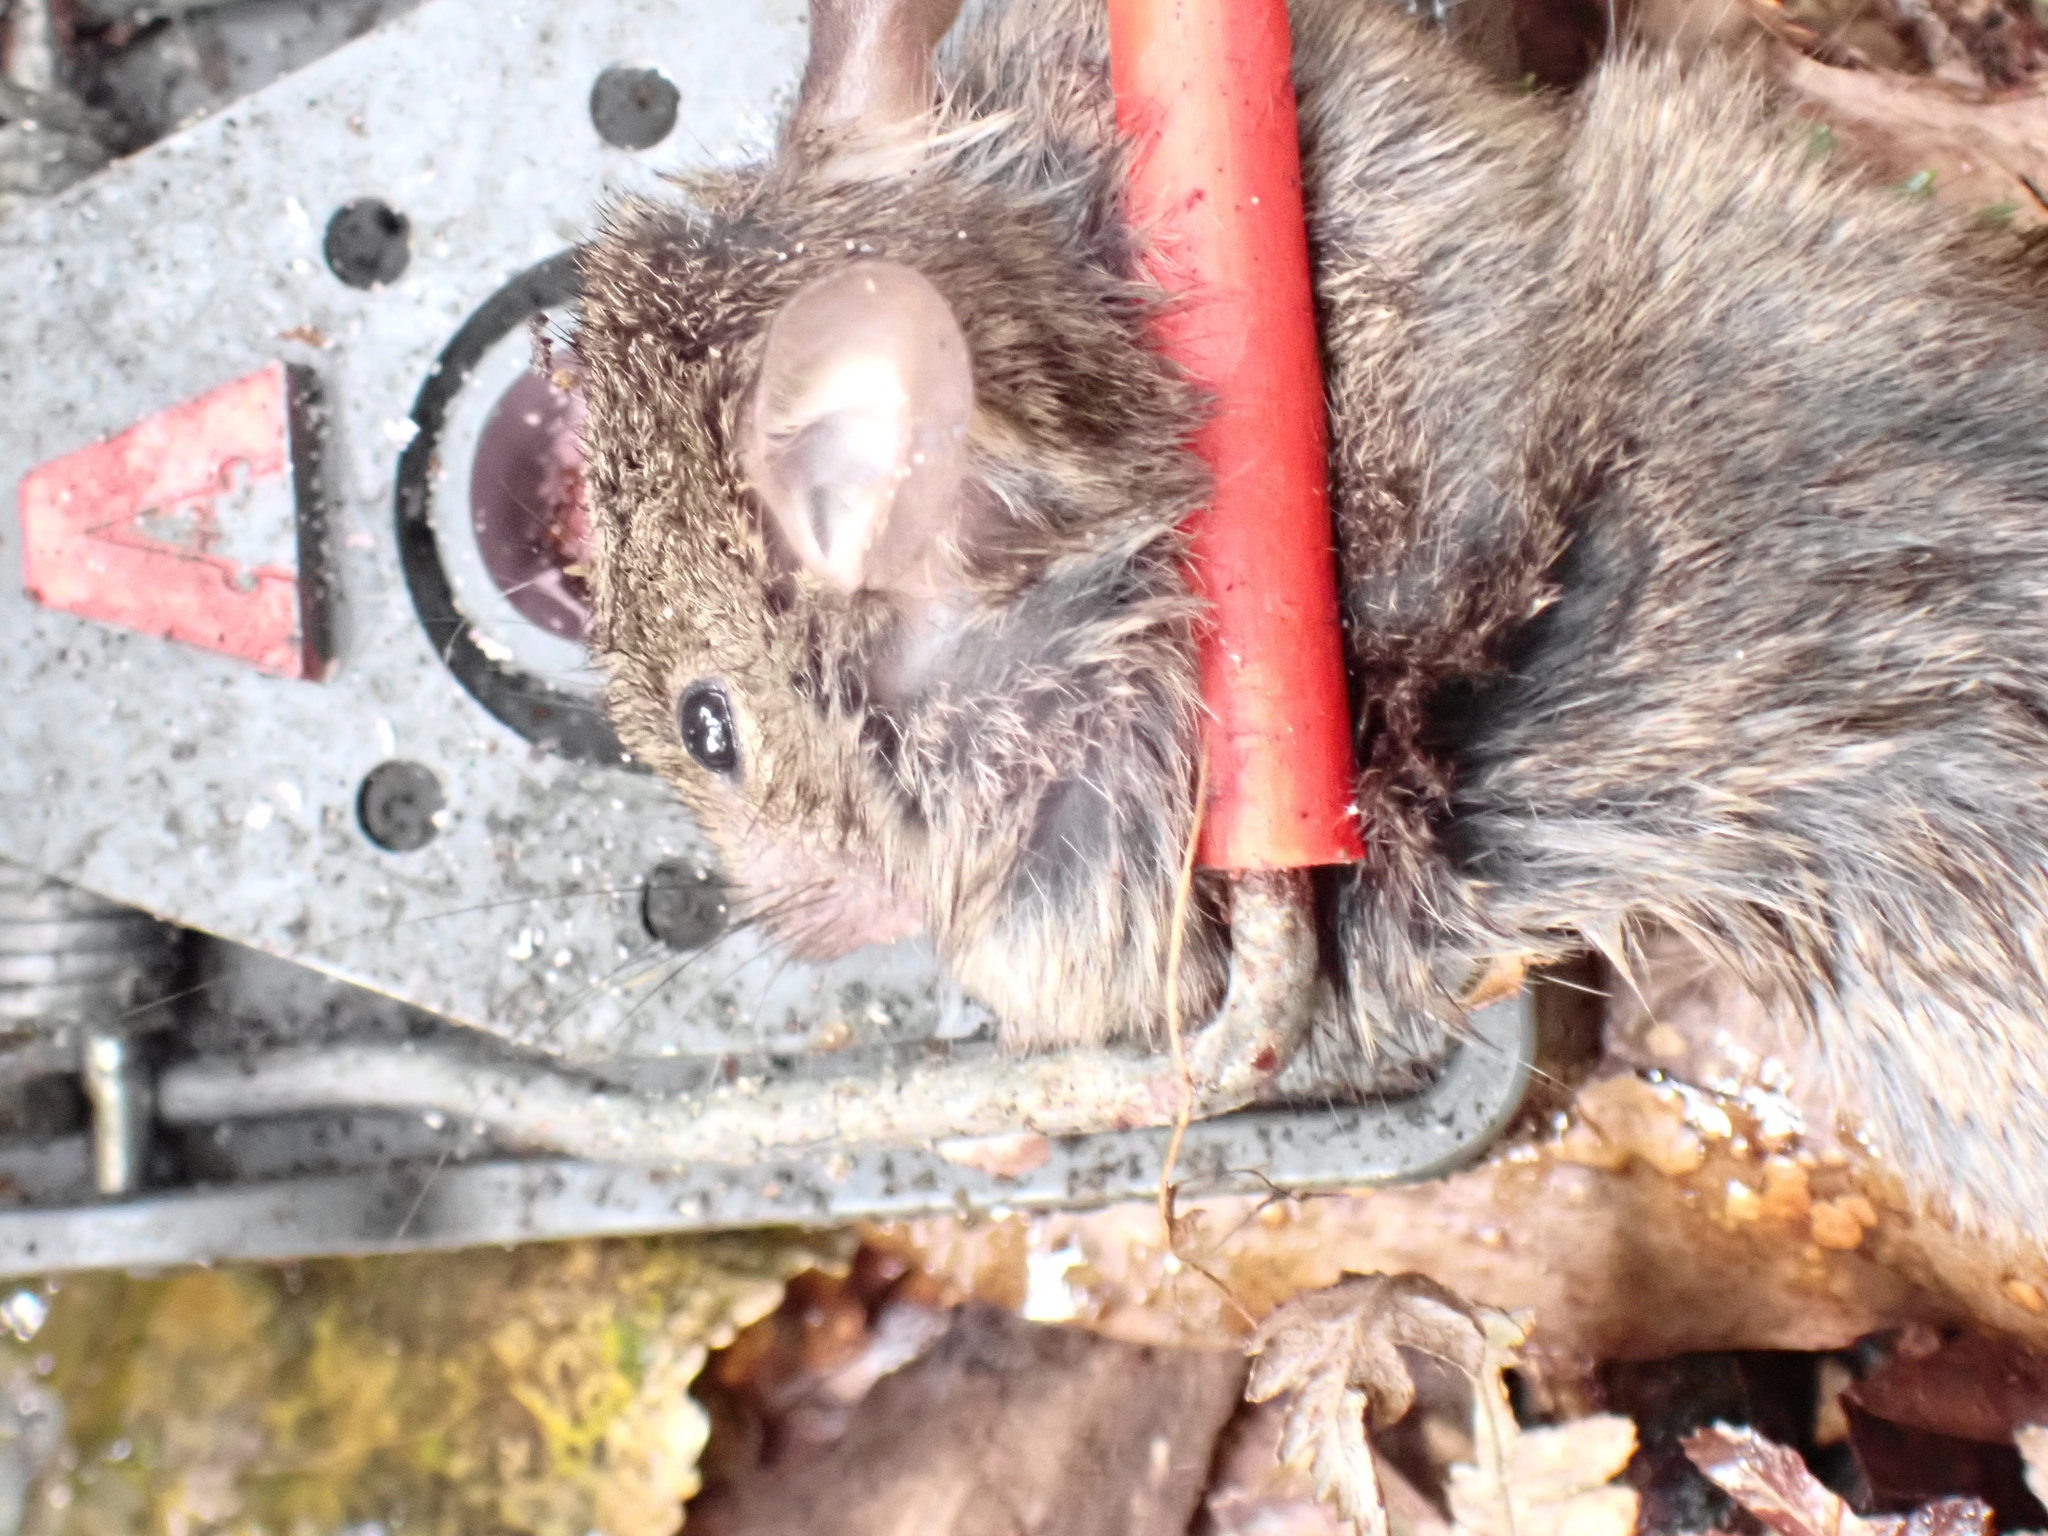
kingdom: Animalia
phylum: Chordata
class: Mammalia
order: Rodentia
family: Muridae
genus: Mus
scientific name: Mus musculus
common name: House mouse
